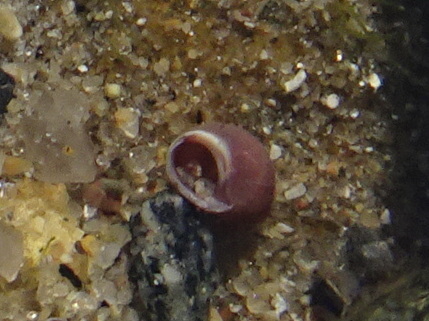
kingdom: Animalia
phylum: Mollusca
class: Gastropoda
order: Littorinimorpha
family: Littorinidae
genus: Lacuna
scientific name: Lacuna vincta
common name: Banded chink shell
